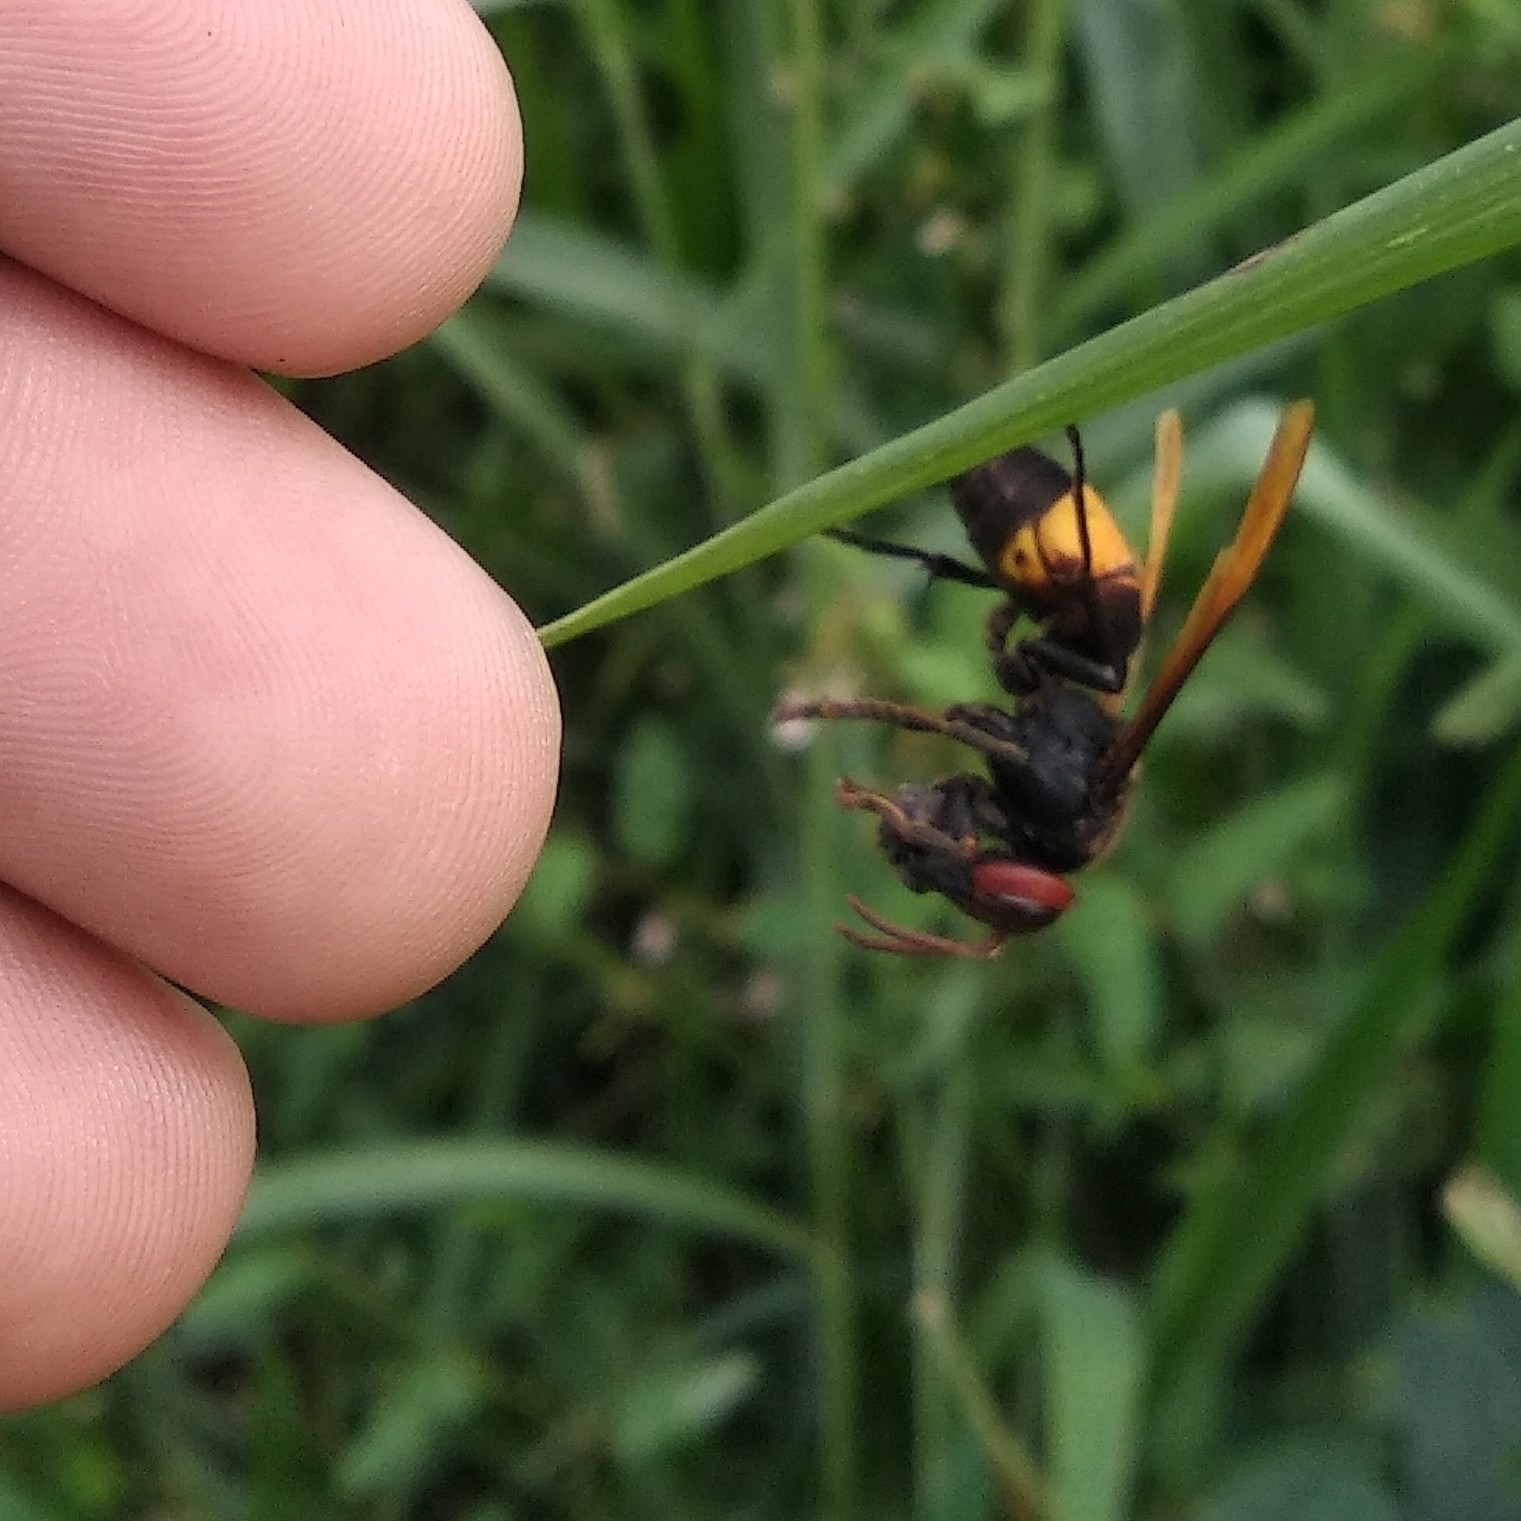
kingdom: Animalia
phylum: Arthropoda
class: Insecta
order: Hymenoptera
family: Vespidae
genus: Vespa
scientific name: Vespa affinis
